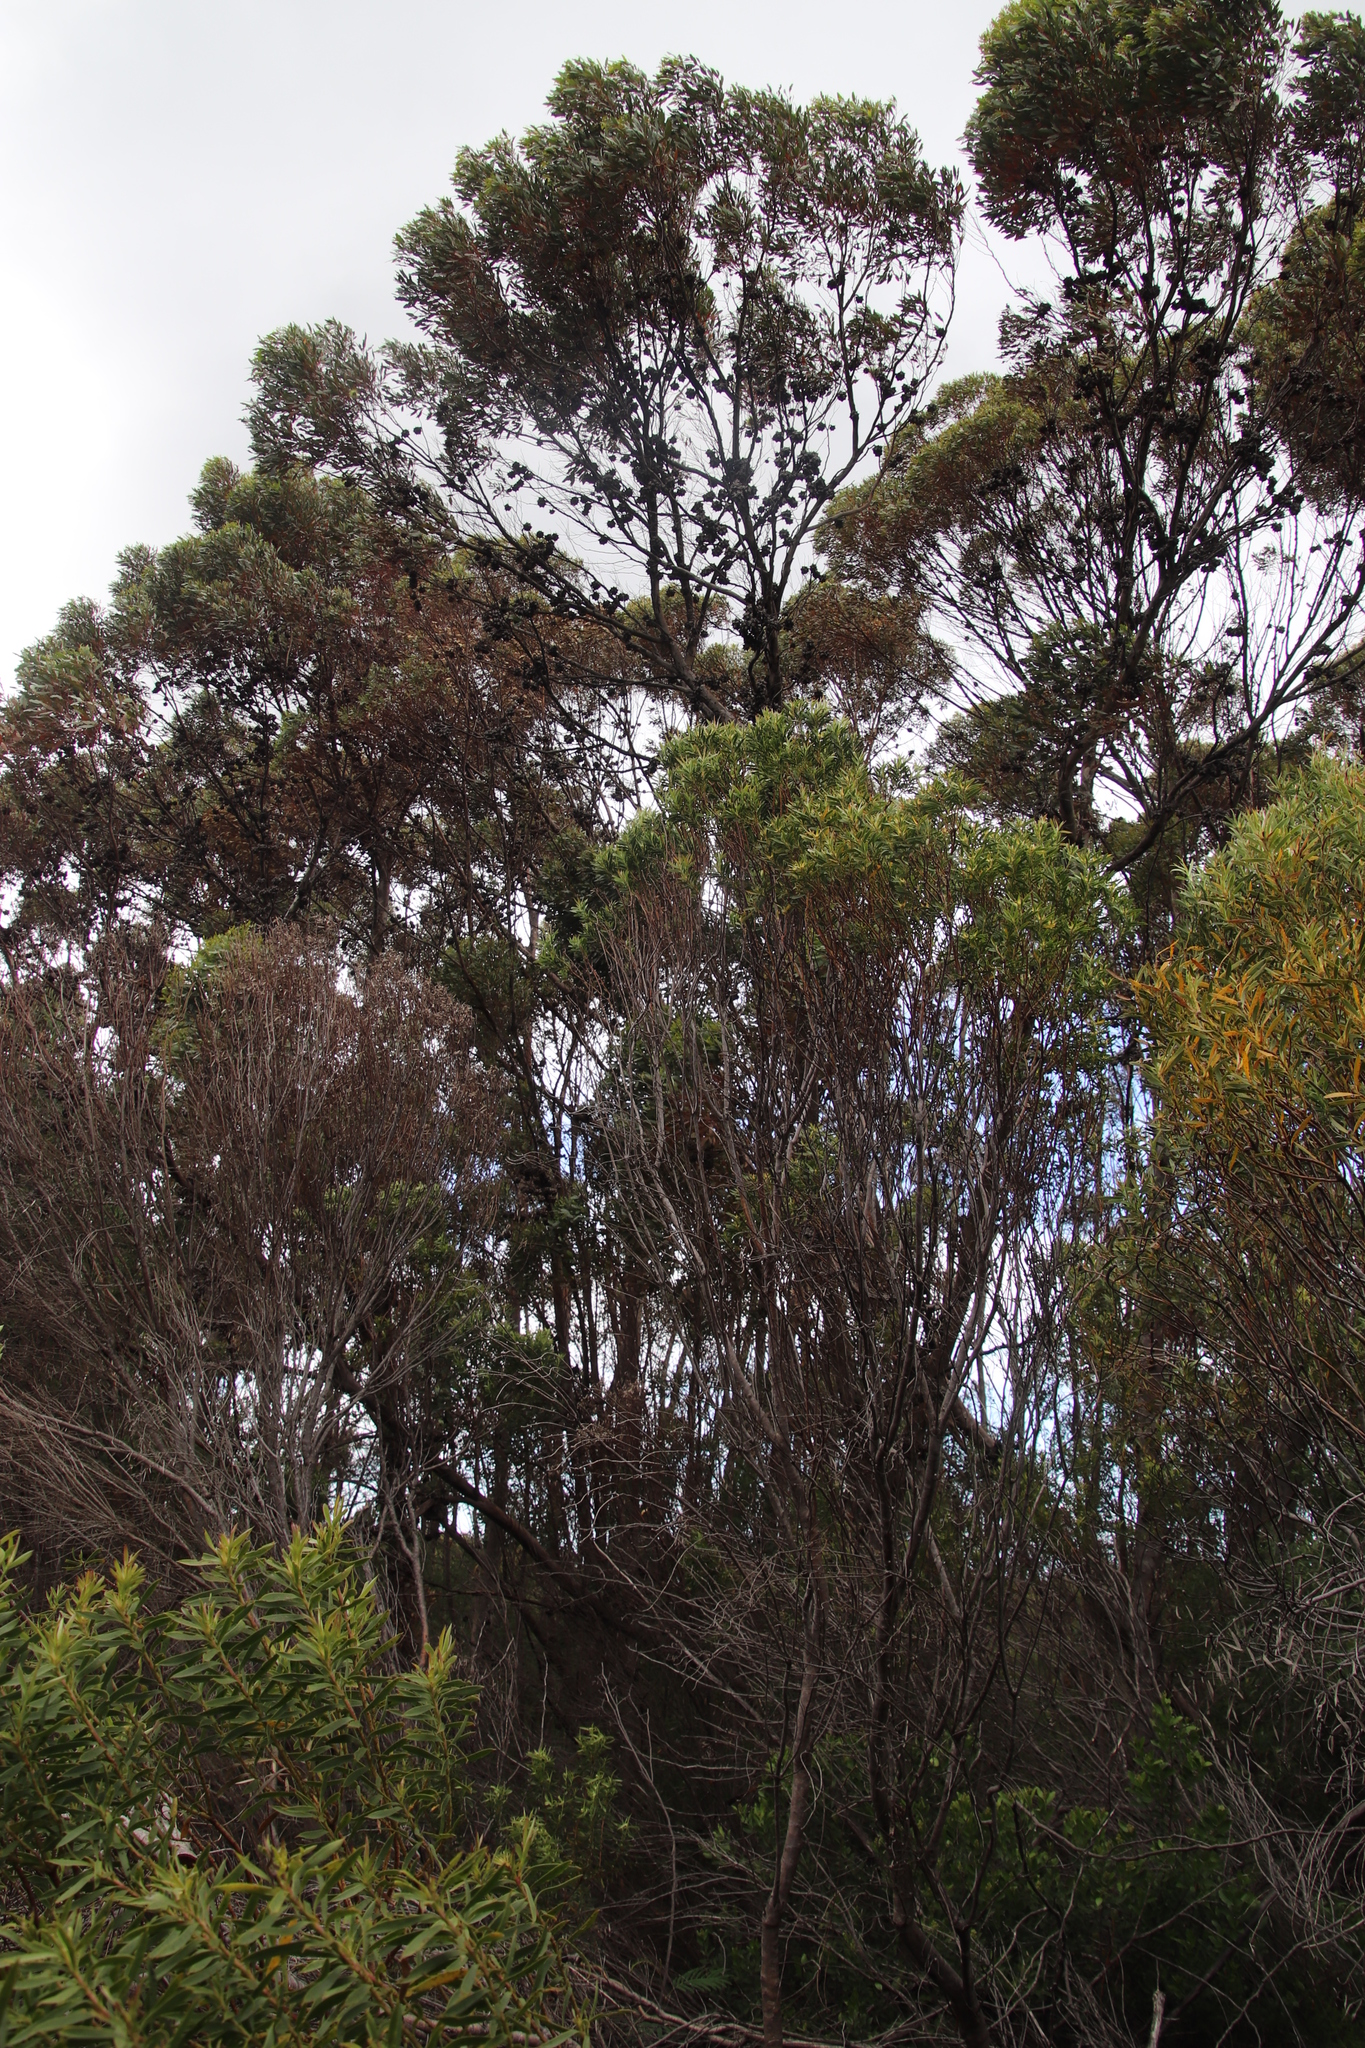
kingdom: Plantae
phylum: Tracheophyta
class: Magnoliopsida
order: Myrtales
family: Myrtaceae
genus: Eucalyptus
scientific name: Eucalyptus conferruminata
